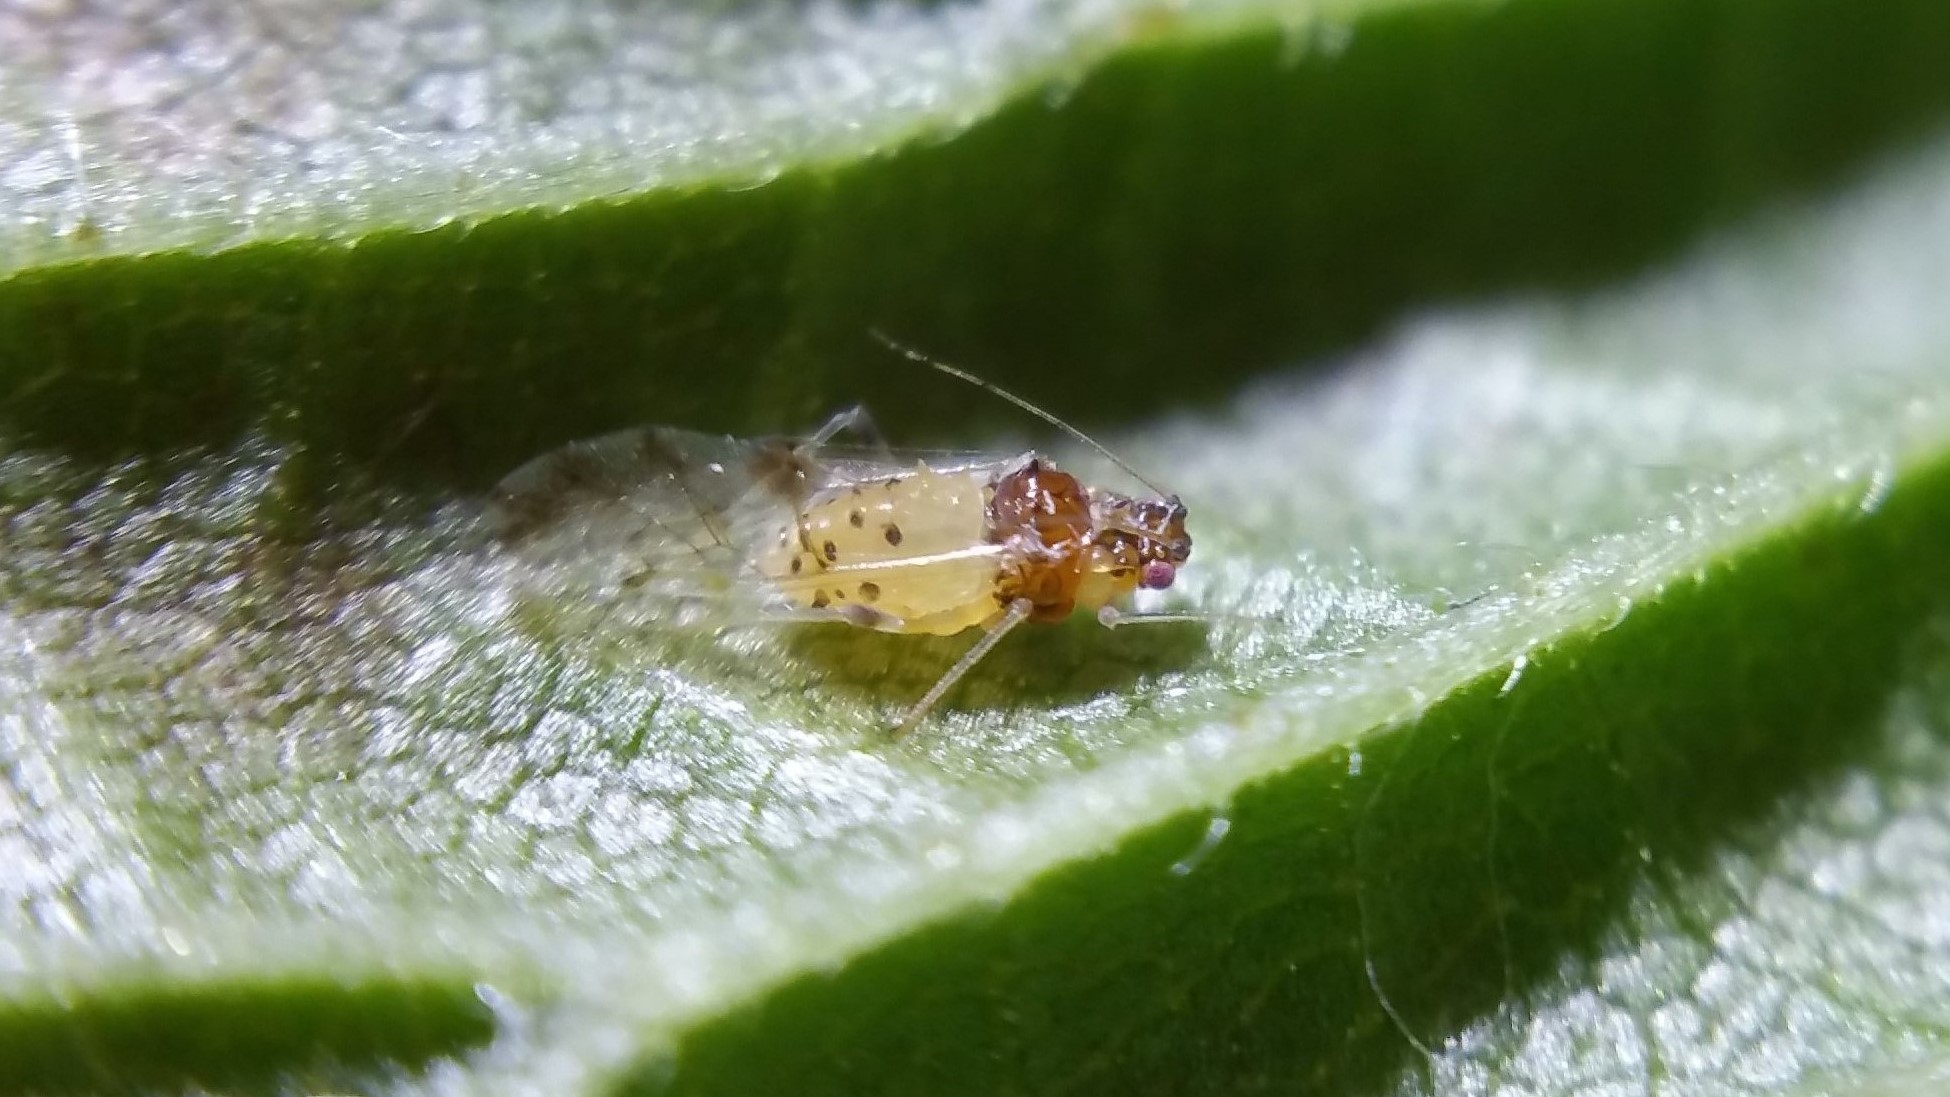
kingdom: Animalia
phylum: Arthropoda
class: Insecta
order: Hemiptera
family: Aphididae
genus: Tinocallis
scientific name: Tinocallis saltans
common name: Aphid
